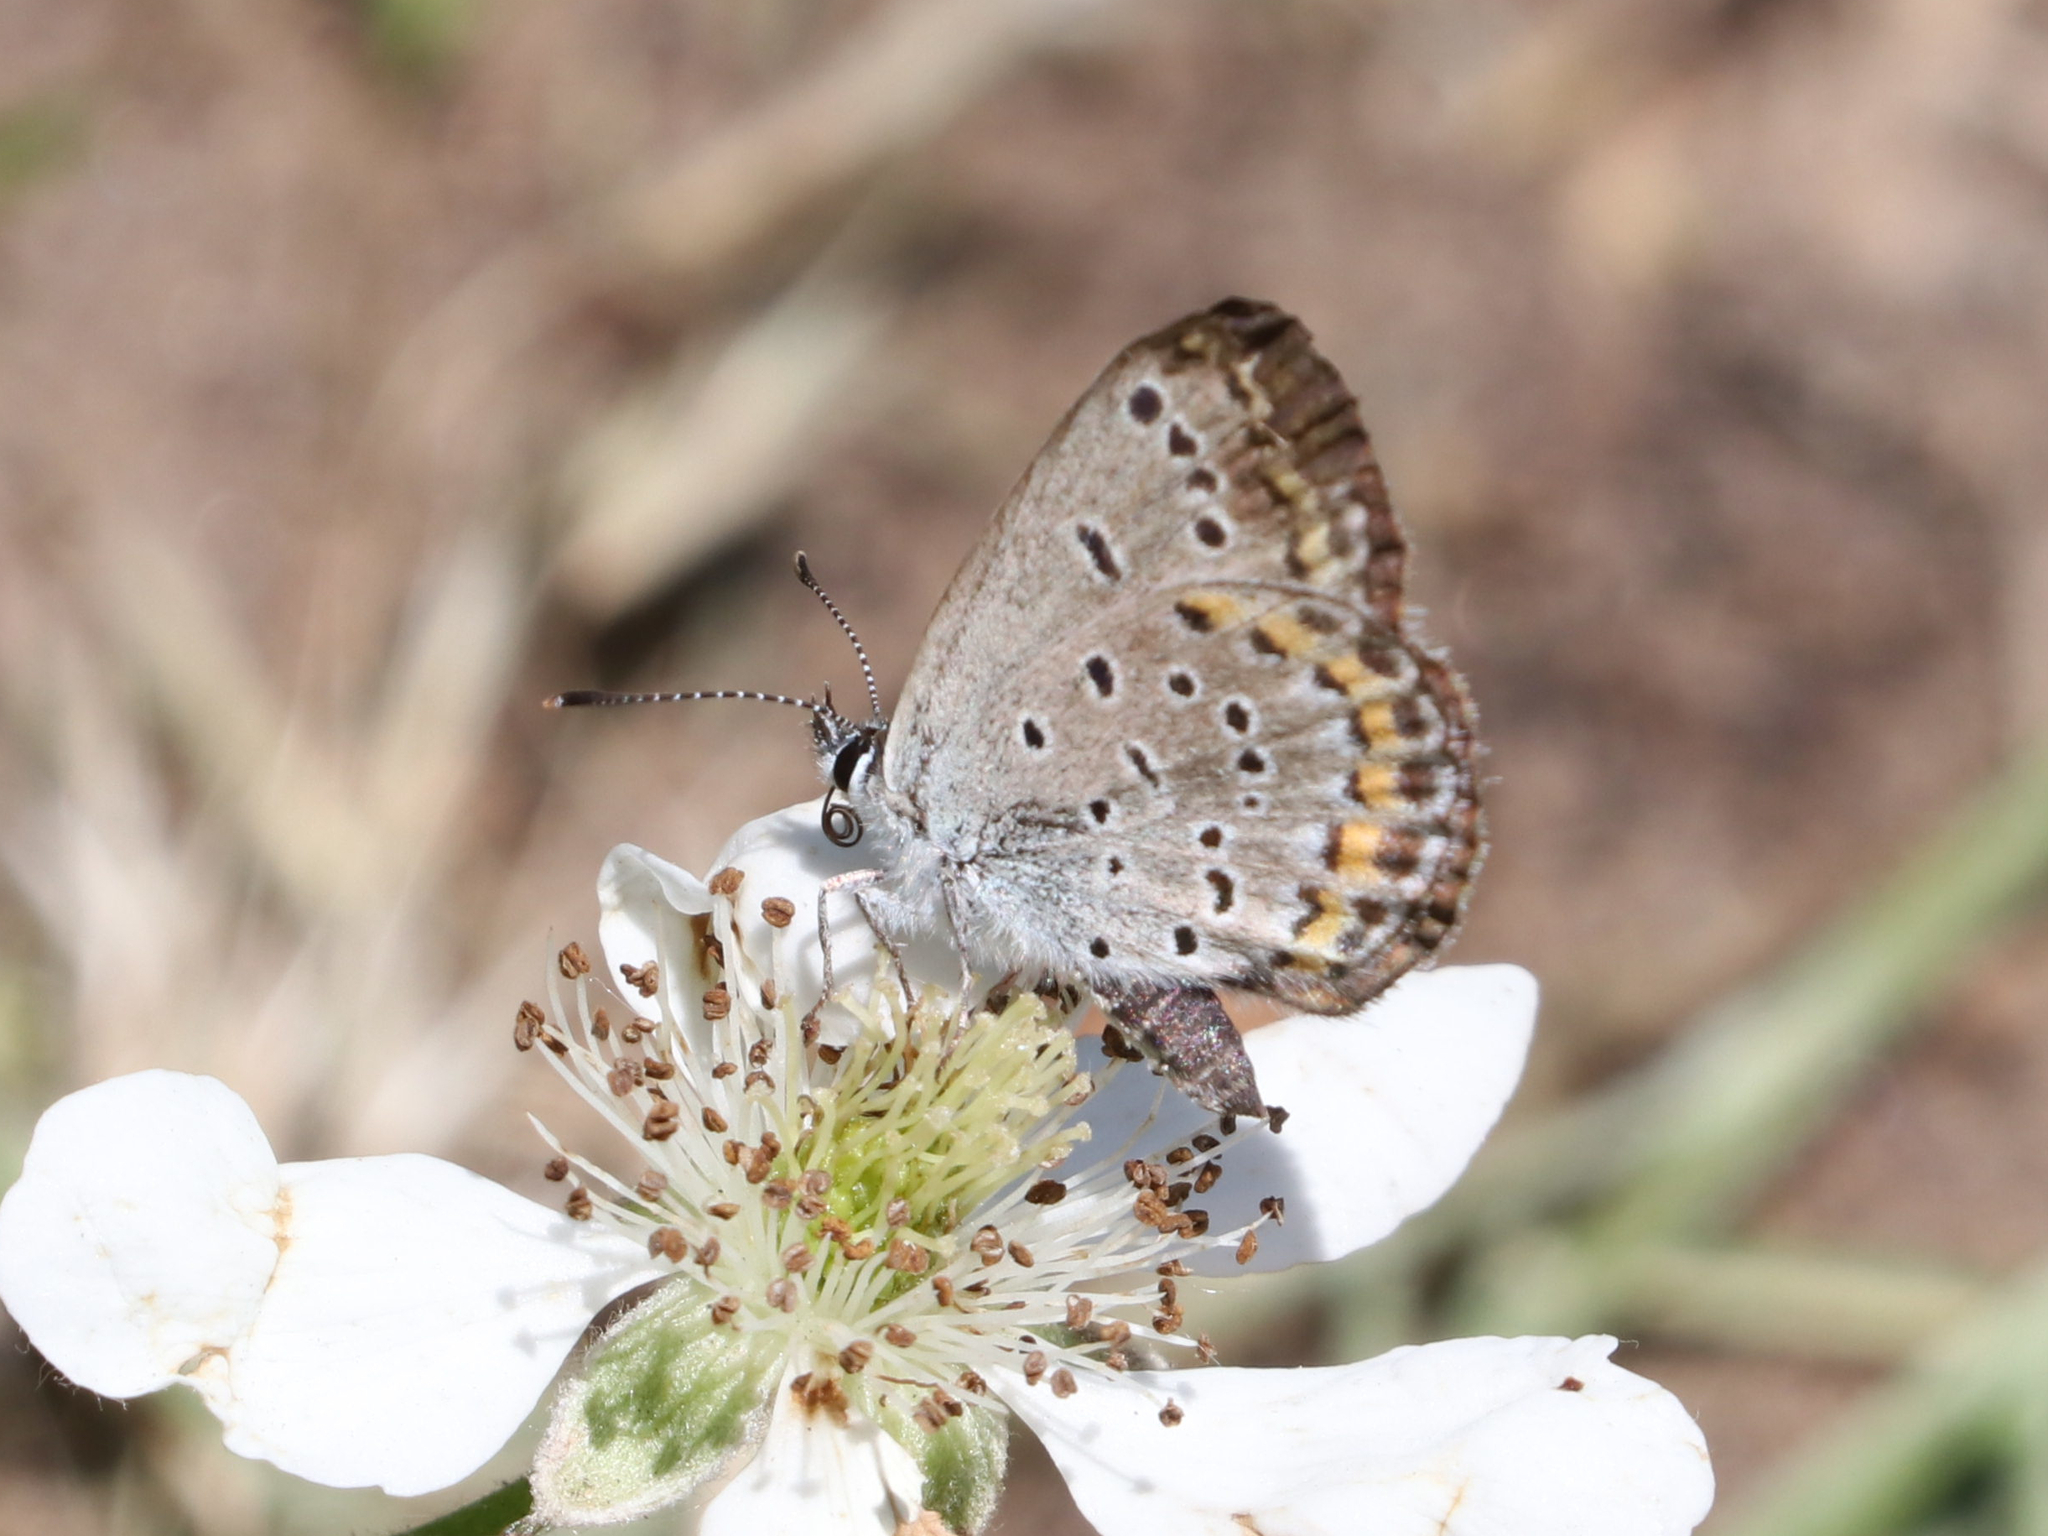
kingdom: Animalia
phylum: Arthropoda
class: Insecta
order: Lepidoptera
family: Lycaenidae
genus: Plebejus
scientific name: Plebejus samuelis
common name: Karner blue
